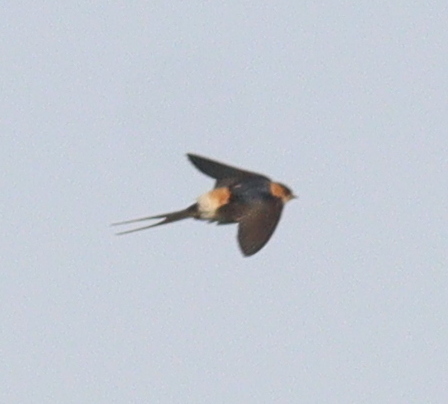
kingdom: Animalia
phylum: Chordata
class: Aves
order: Passeriformes
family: Hirundinidae
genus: Cecropis
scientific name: Cecropis daurica
